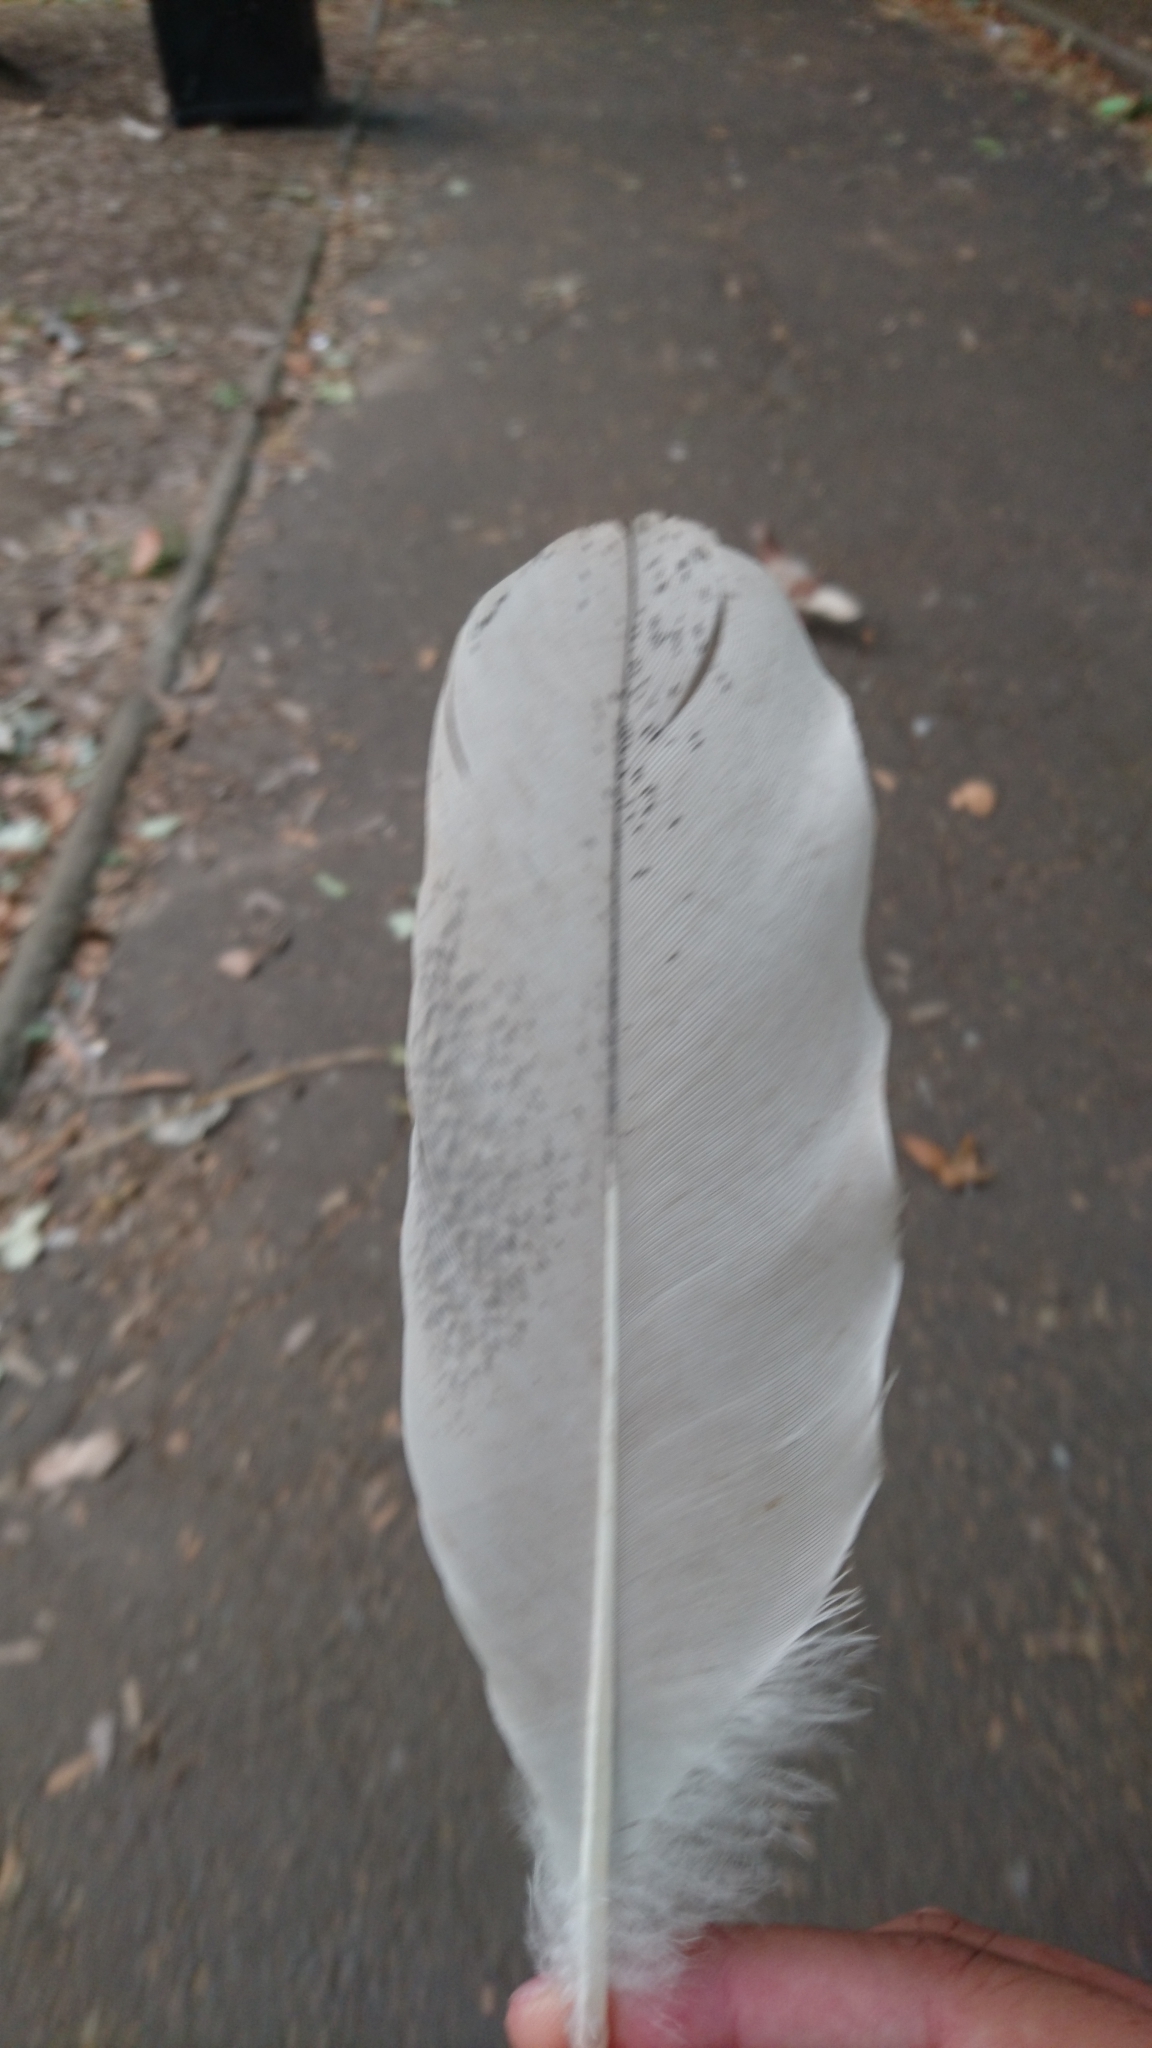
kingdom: Animalia
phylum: Chordata
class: Aves
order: Pelecaniformes
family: Threskiornithidae
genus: Threskiornis
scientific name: Threskiornis molucca
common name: Australian white ibis
